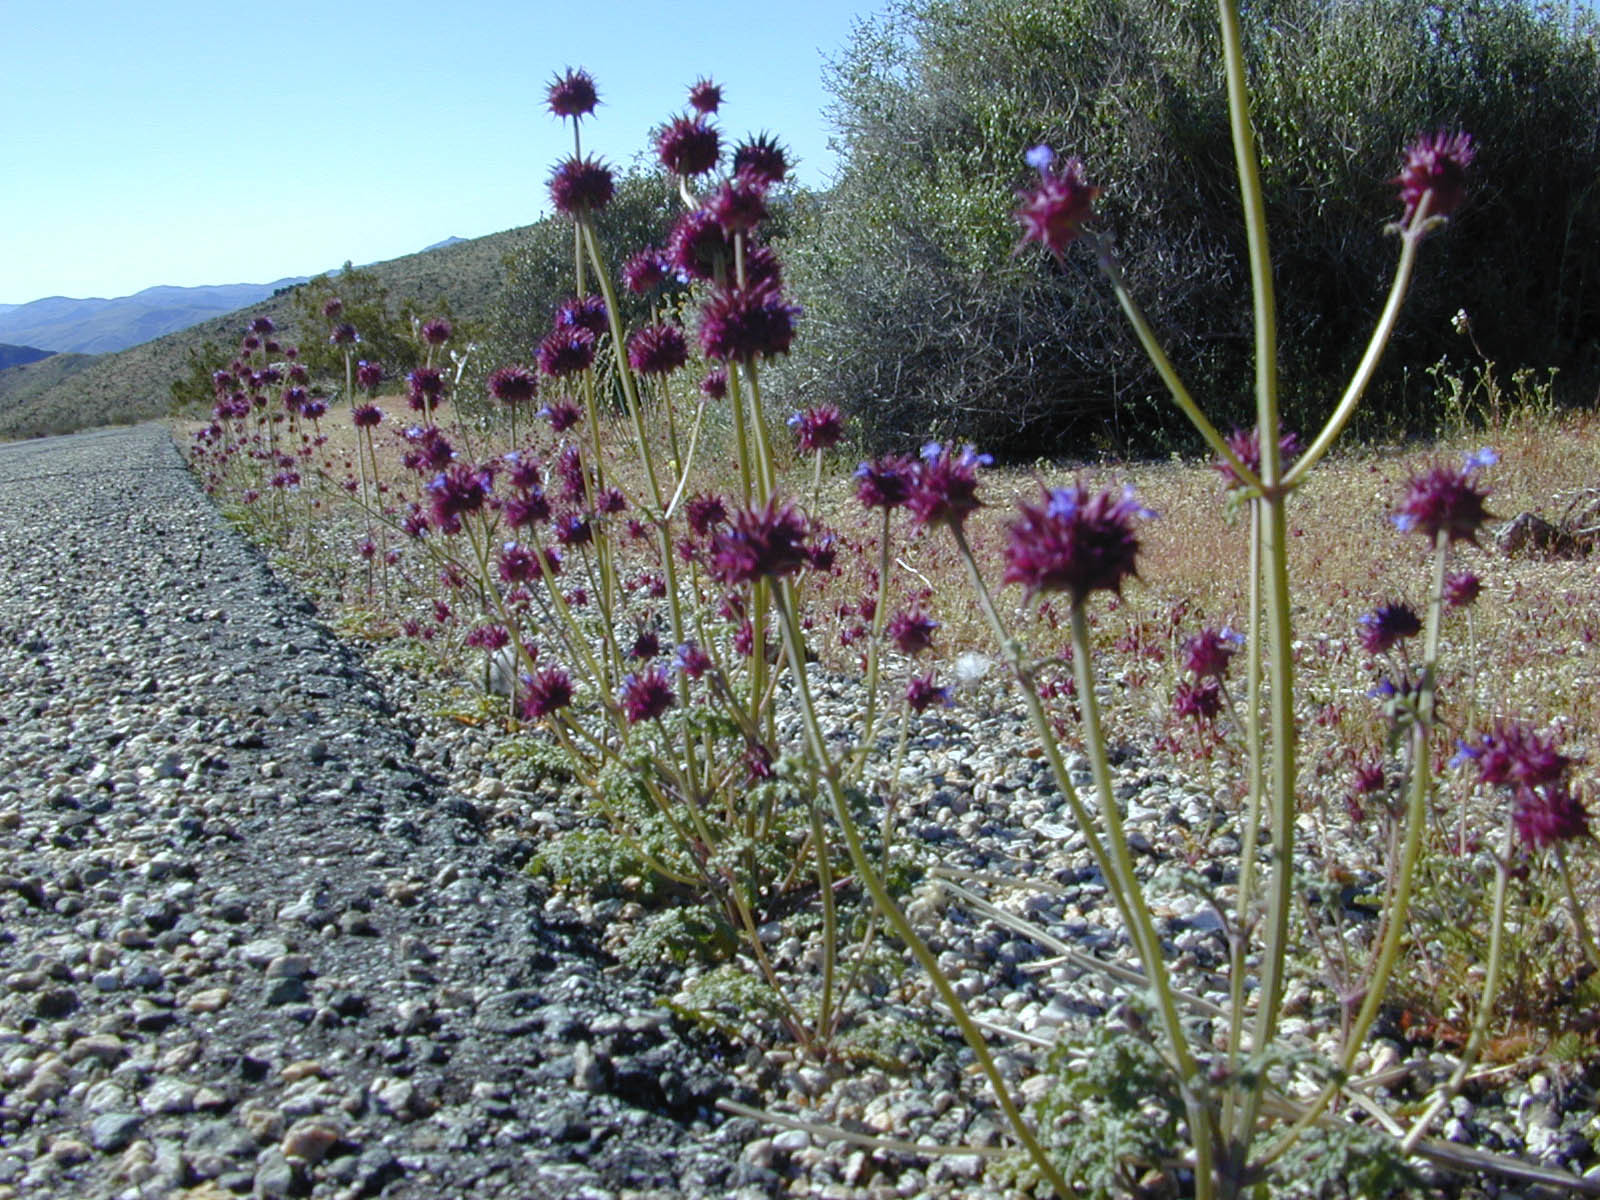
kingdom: Plantae
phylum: Tracheophyta
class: Magnoliopsida
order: Lamiales
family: Lamiaceae
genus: Salvia
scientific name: Salvia columbariae
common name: Chia
